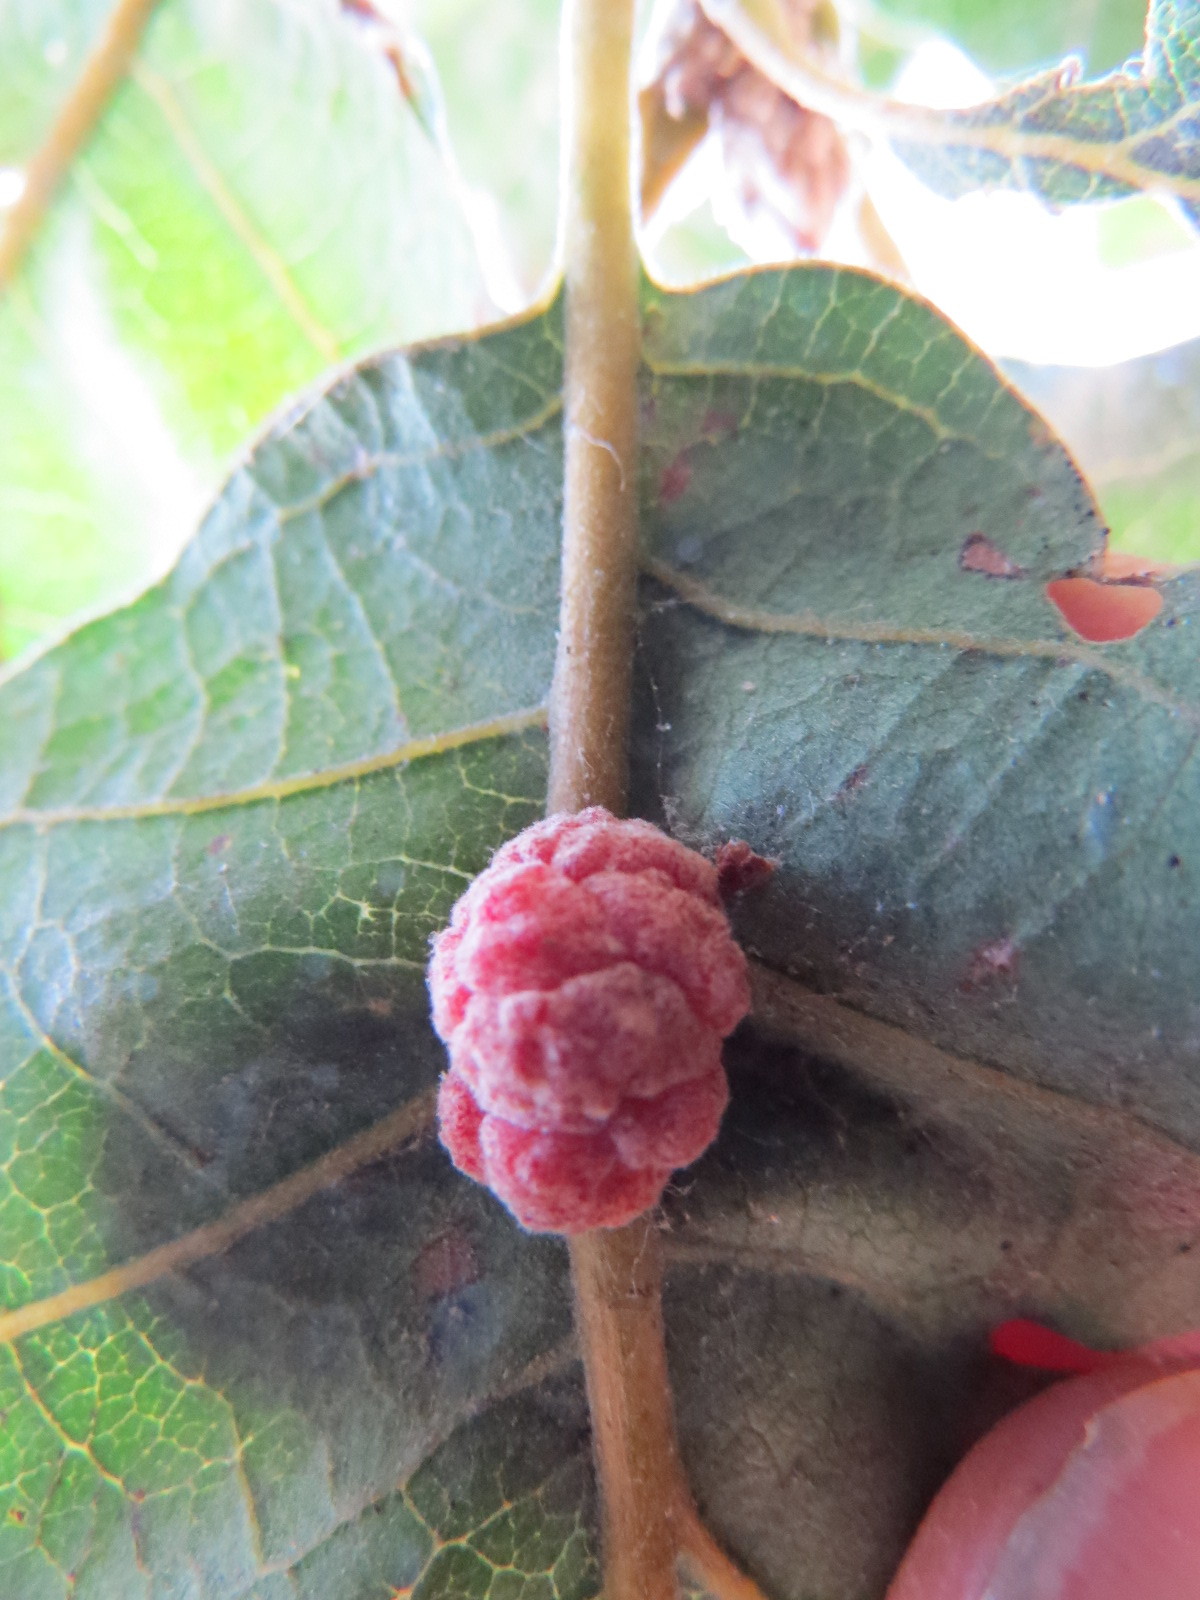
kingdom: Animalia
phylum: Arthropoda
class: Insecta
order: Hymenoptera
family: Cynipidae
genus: Andricus
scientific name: Andricus
